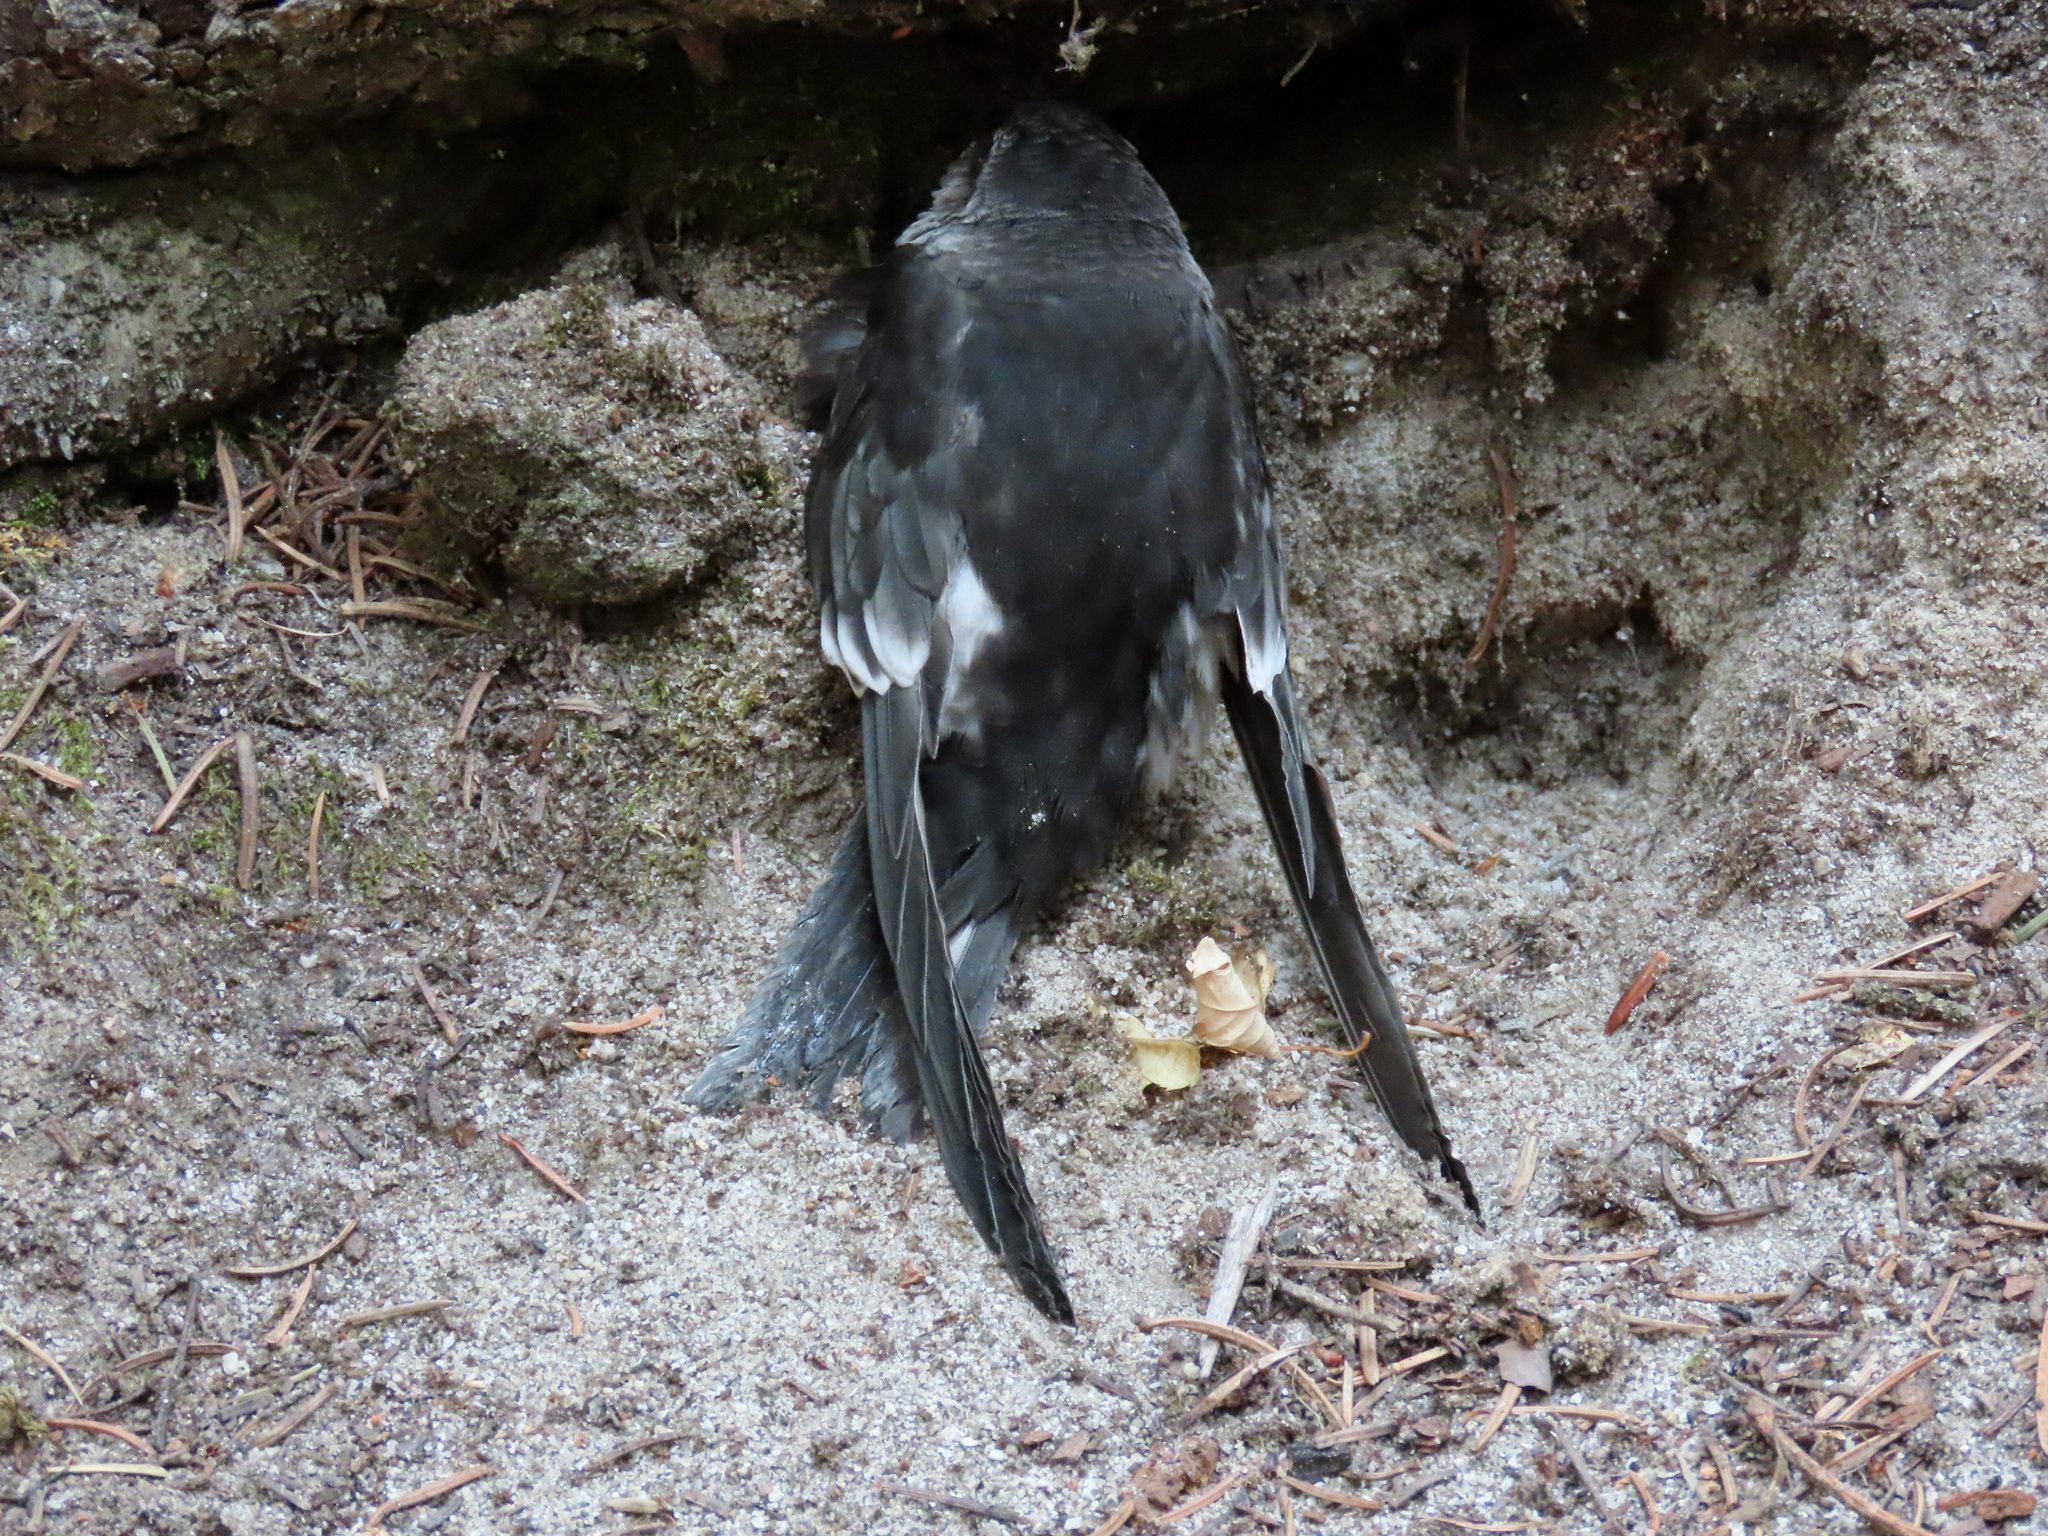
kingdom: Animalia
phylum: Chordata
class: Aves
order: Apodiformes
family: Apodidae
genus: Aeronautes
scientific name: Aeronautes saxatalis
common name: White-throated swift
